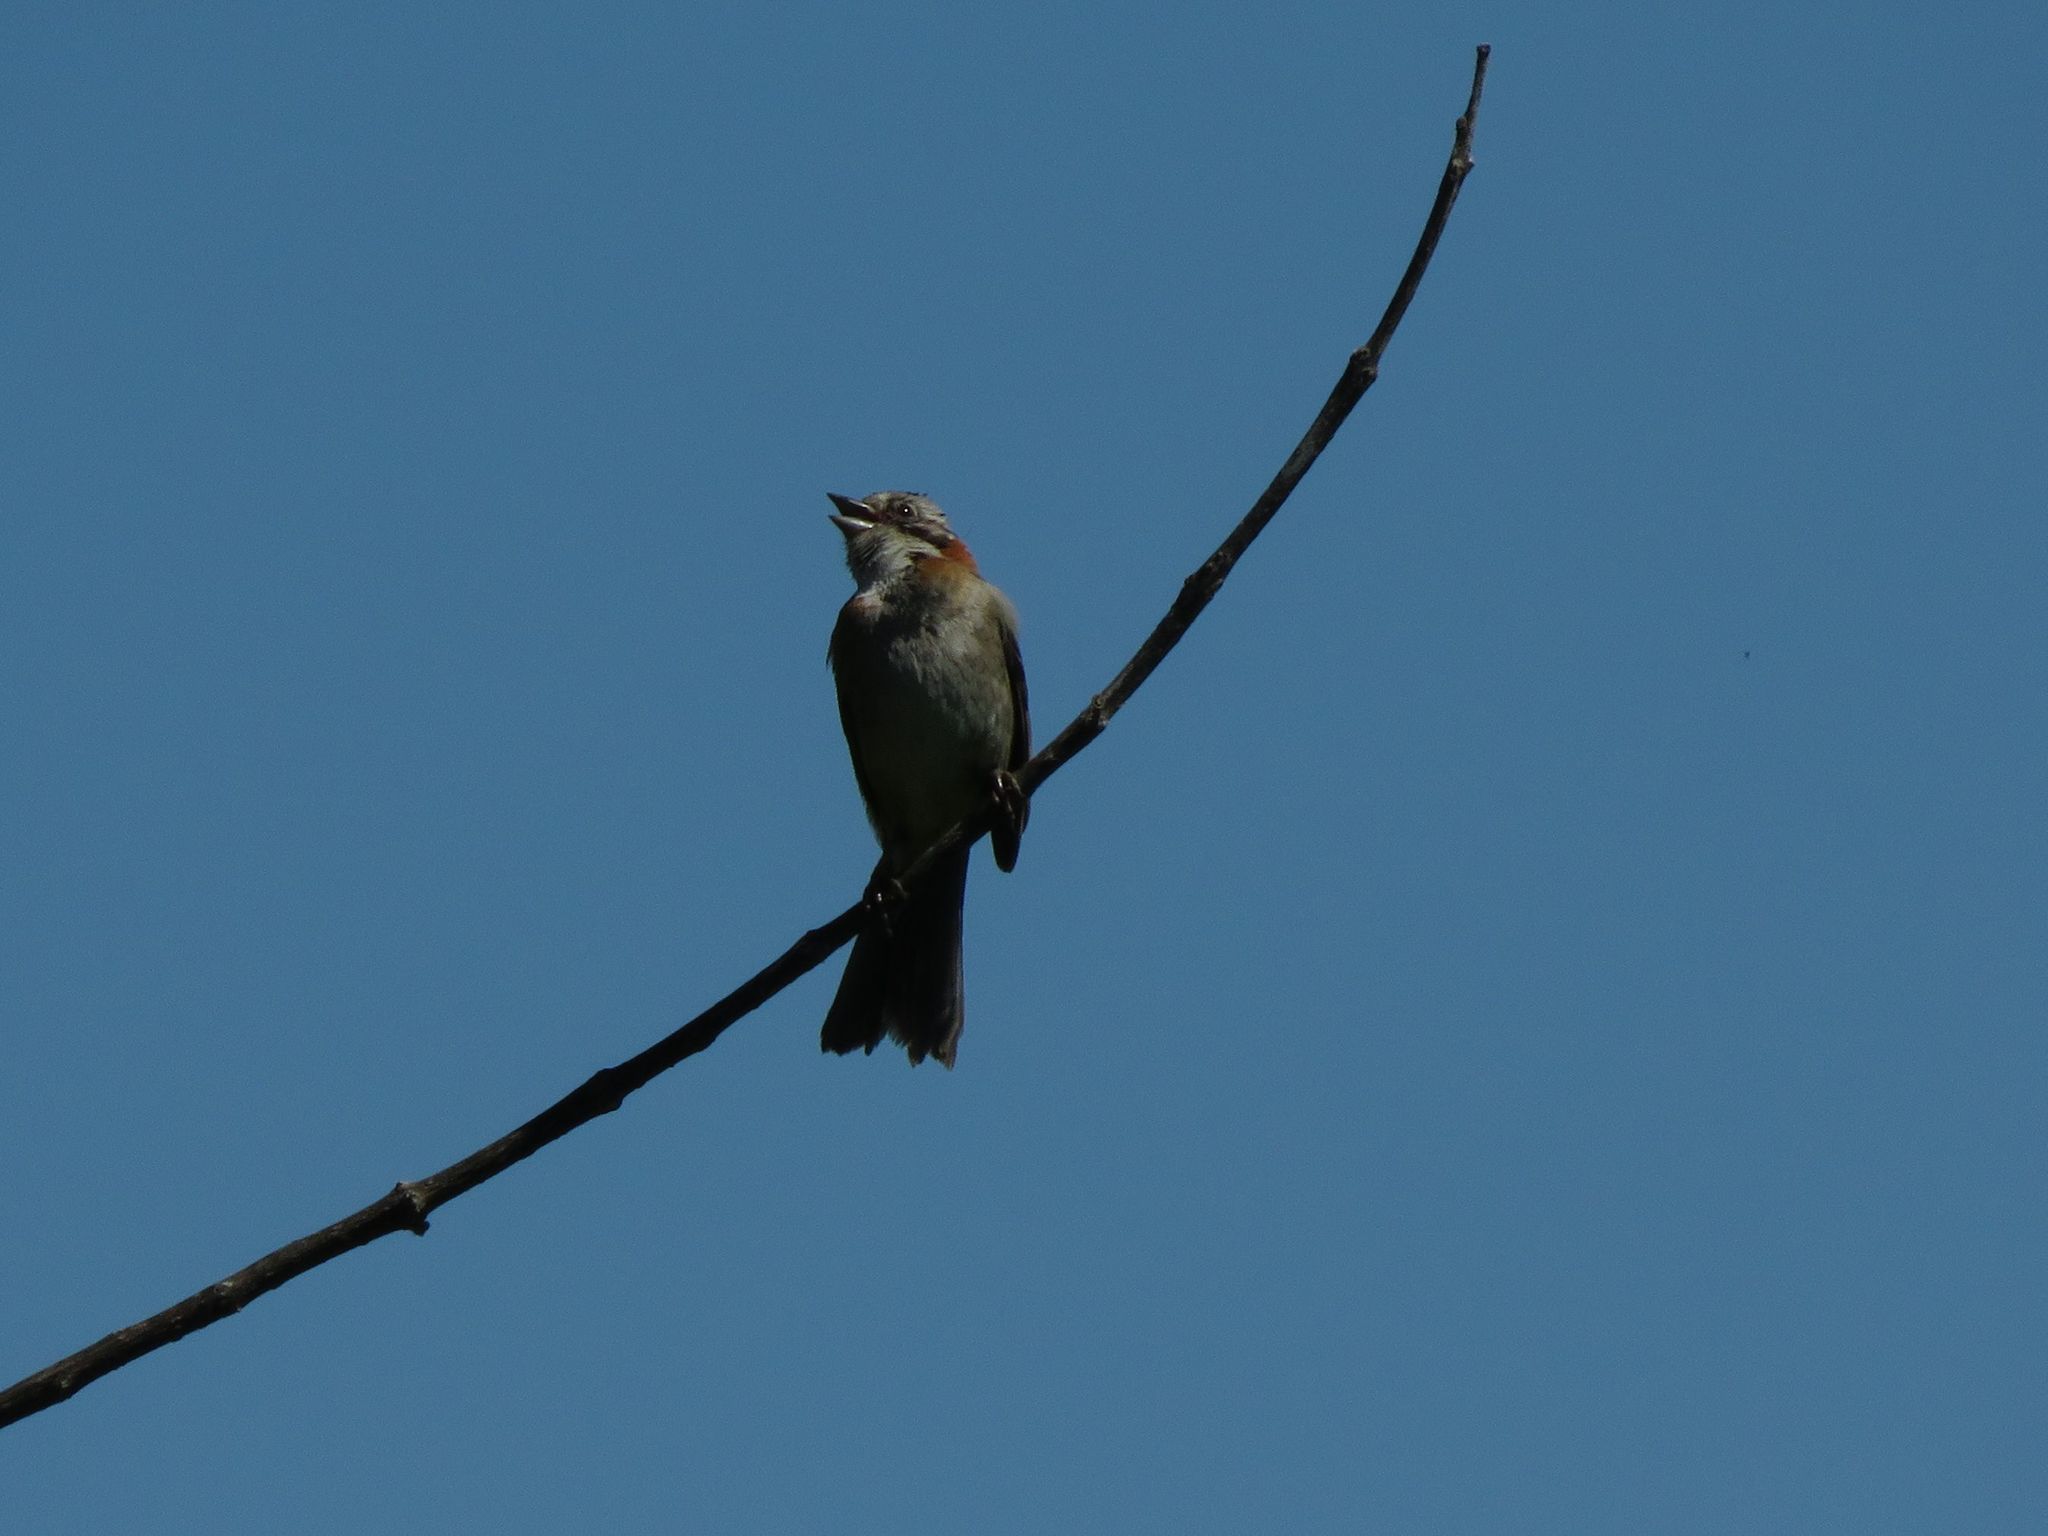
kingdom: Animalia
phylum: Chordata
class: Aves
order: Passeriformes
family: Passerellidae
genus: Zonotrichia
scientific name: Zonotrichia capensis
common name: Rufous-collared sparrow
